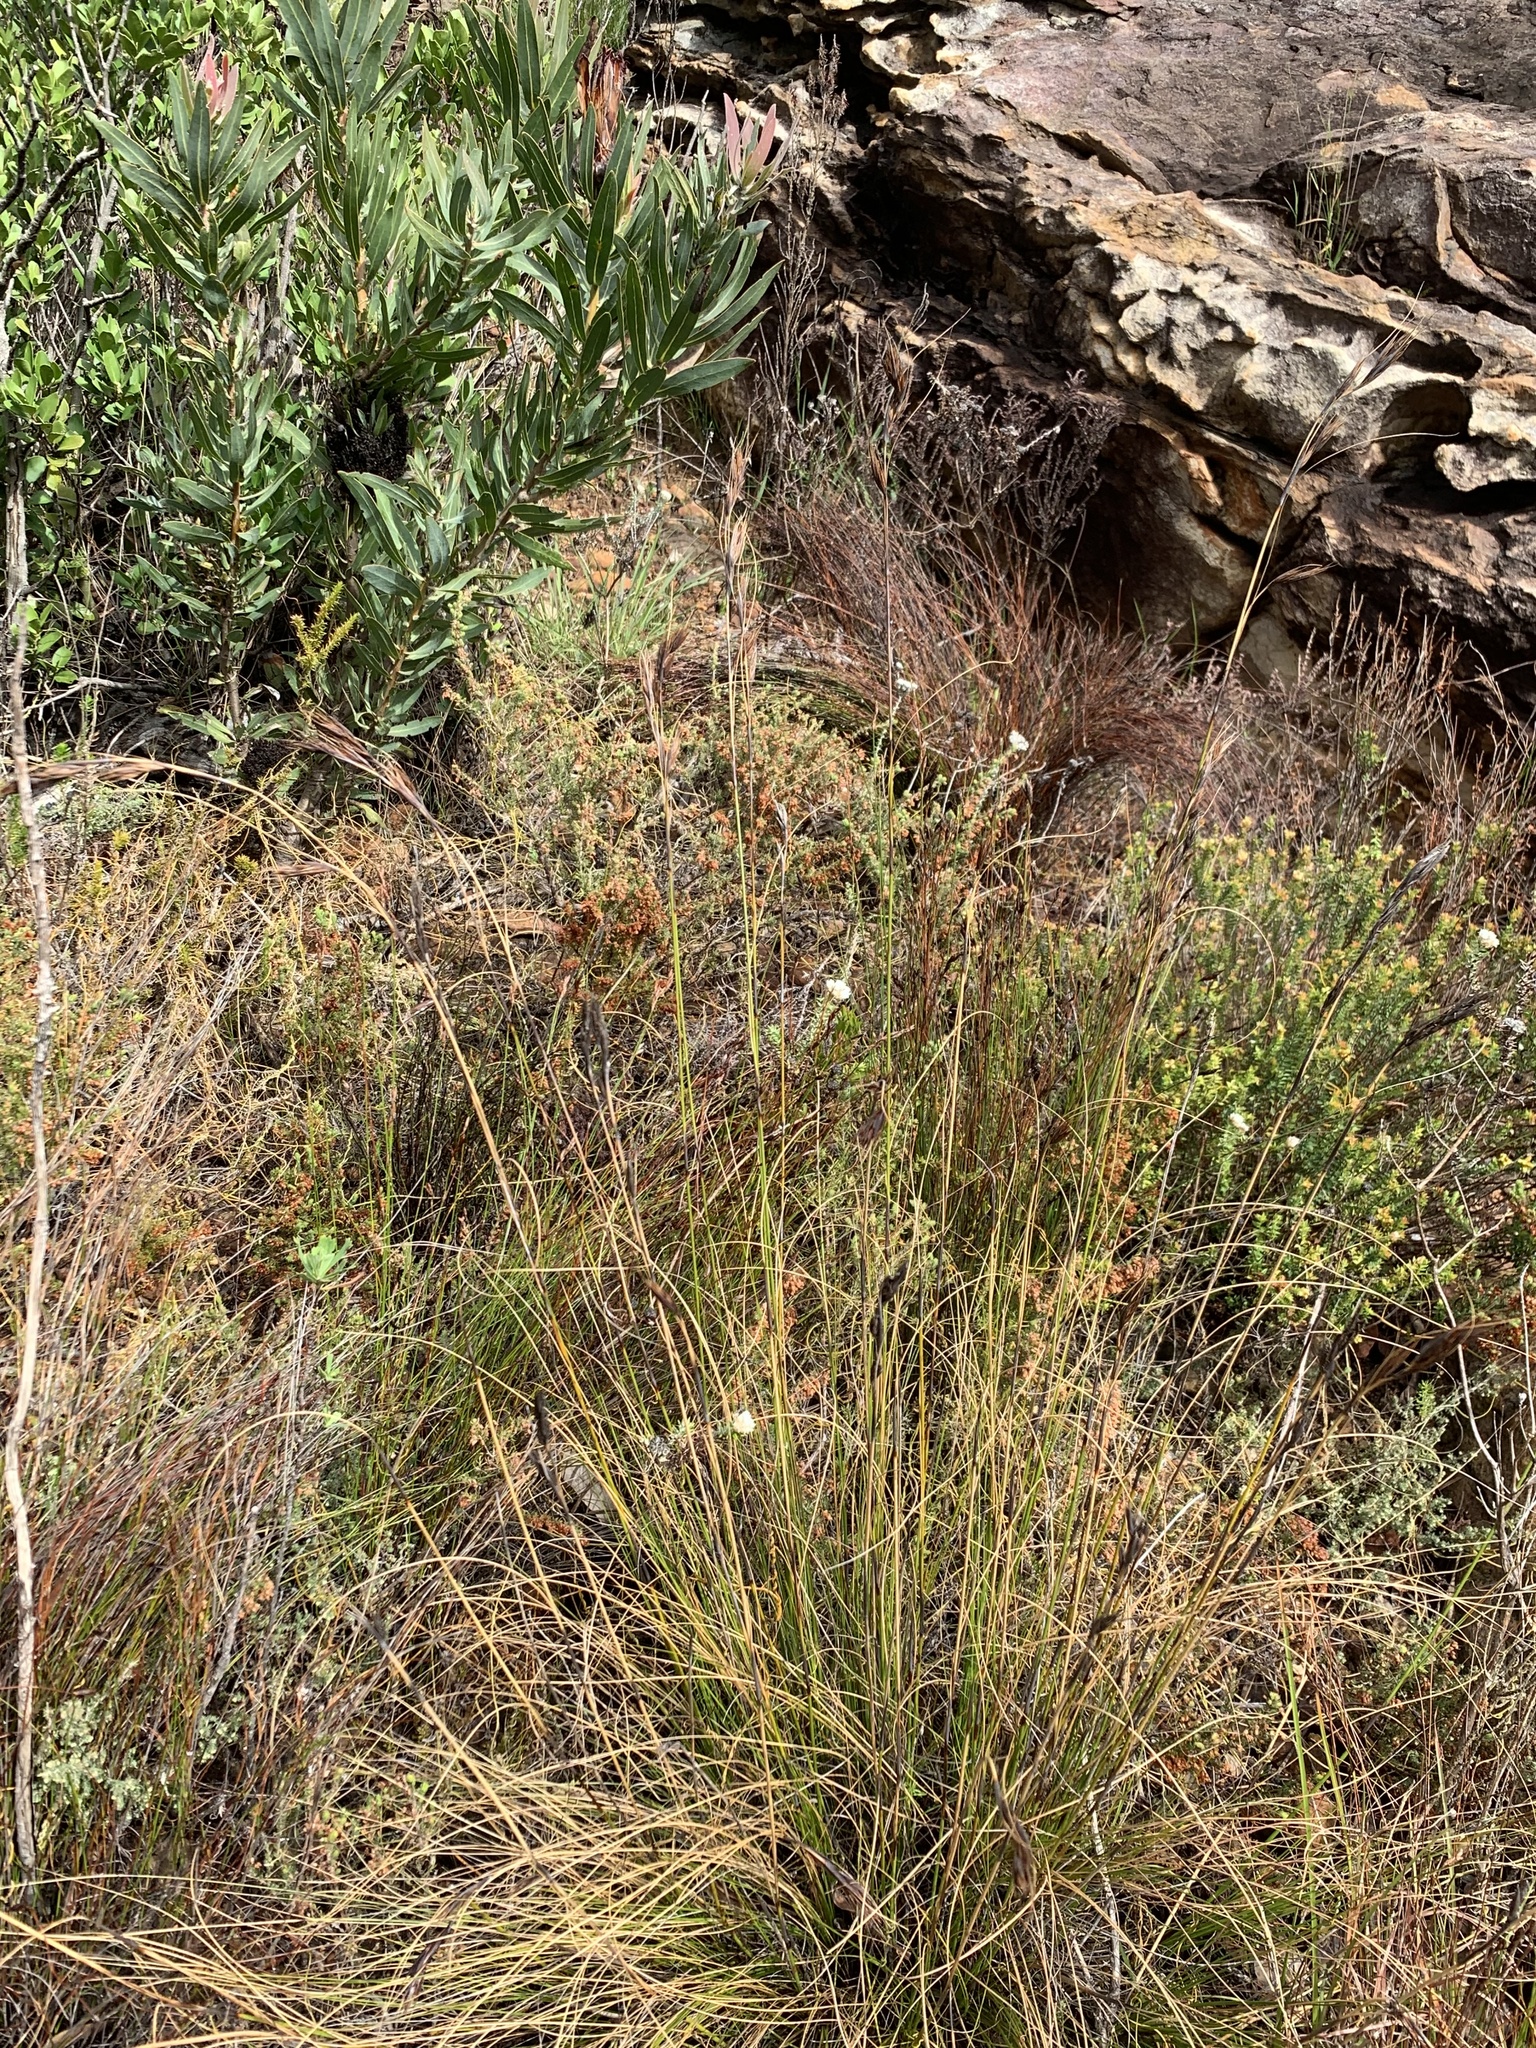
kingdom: Plantae
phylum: Tracheophyta
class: Liliopsida
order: Poales
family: Cyperaceae
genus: Tetraria
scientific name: Tetraria ustulata
